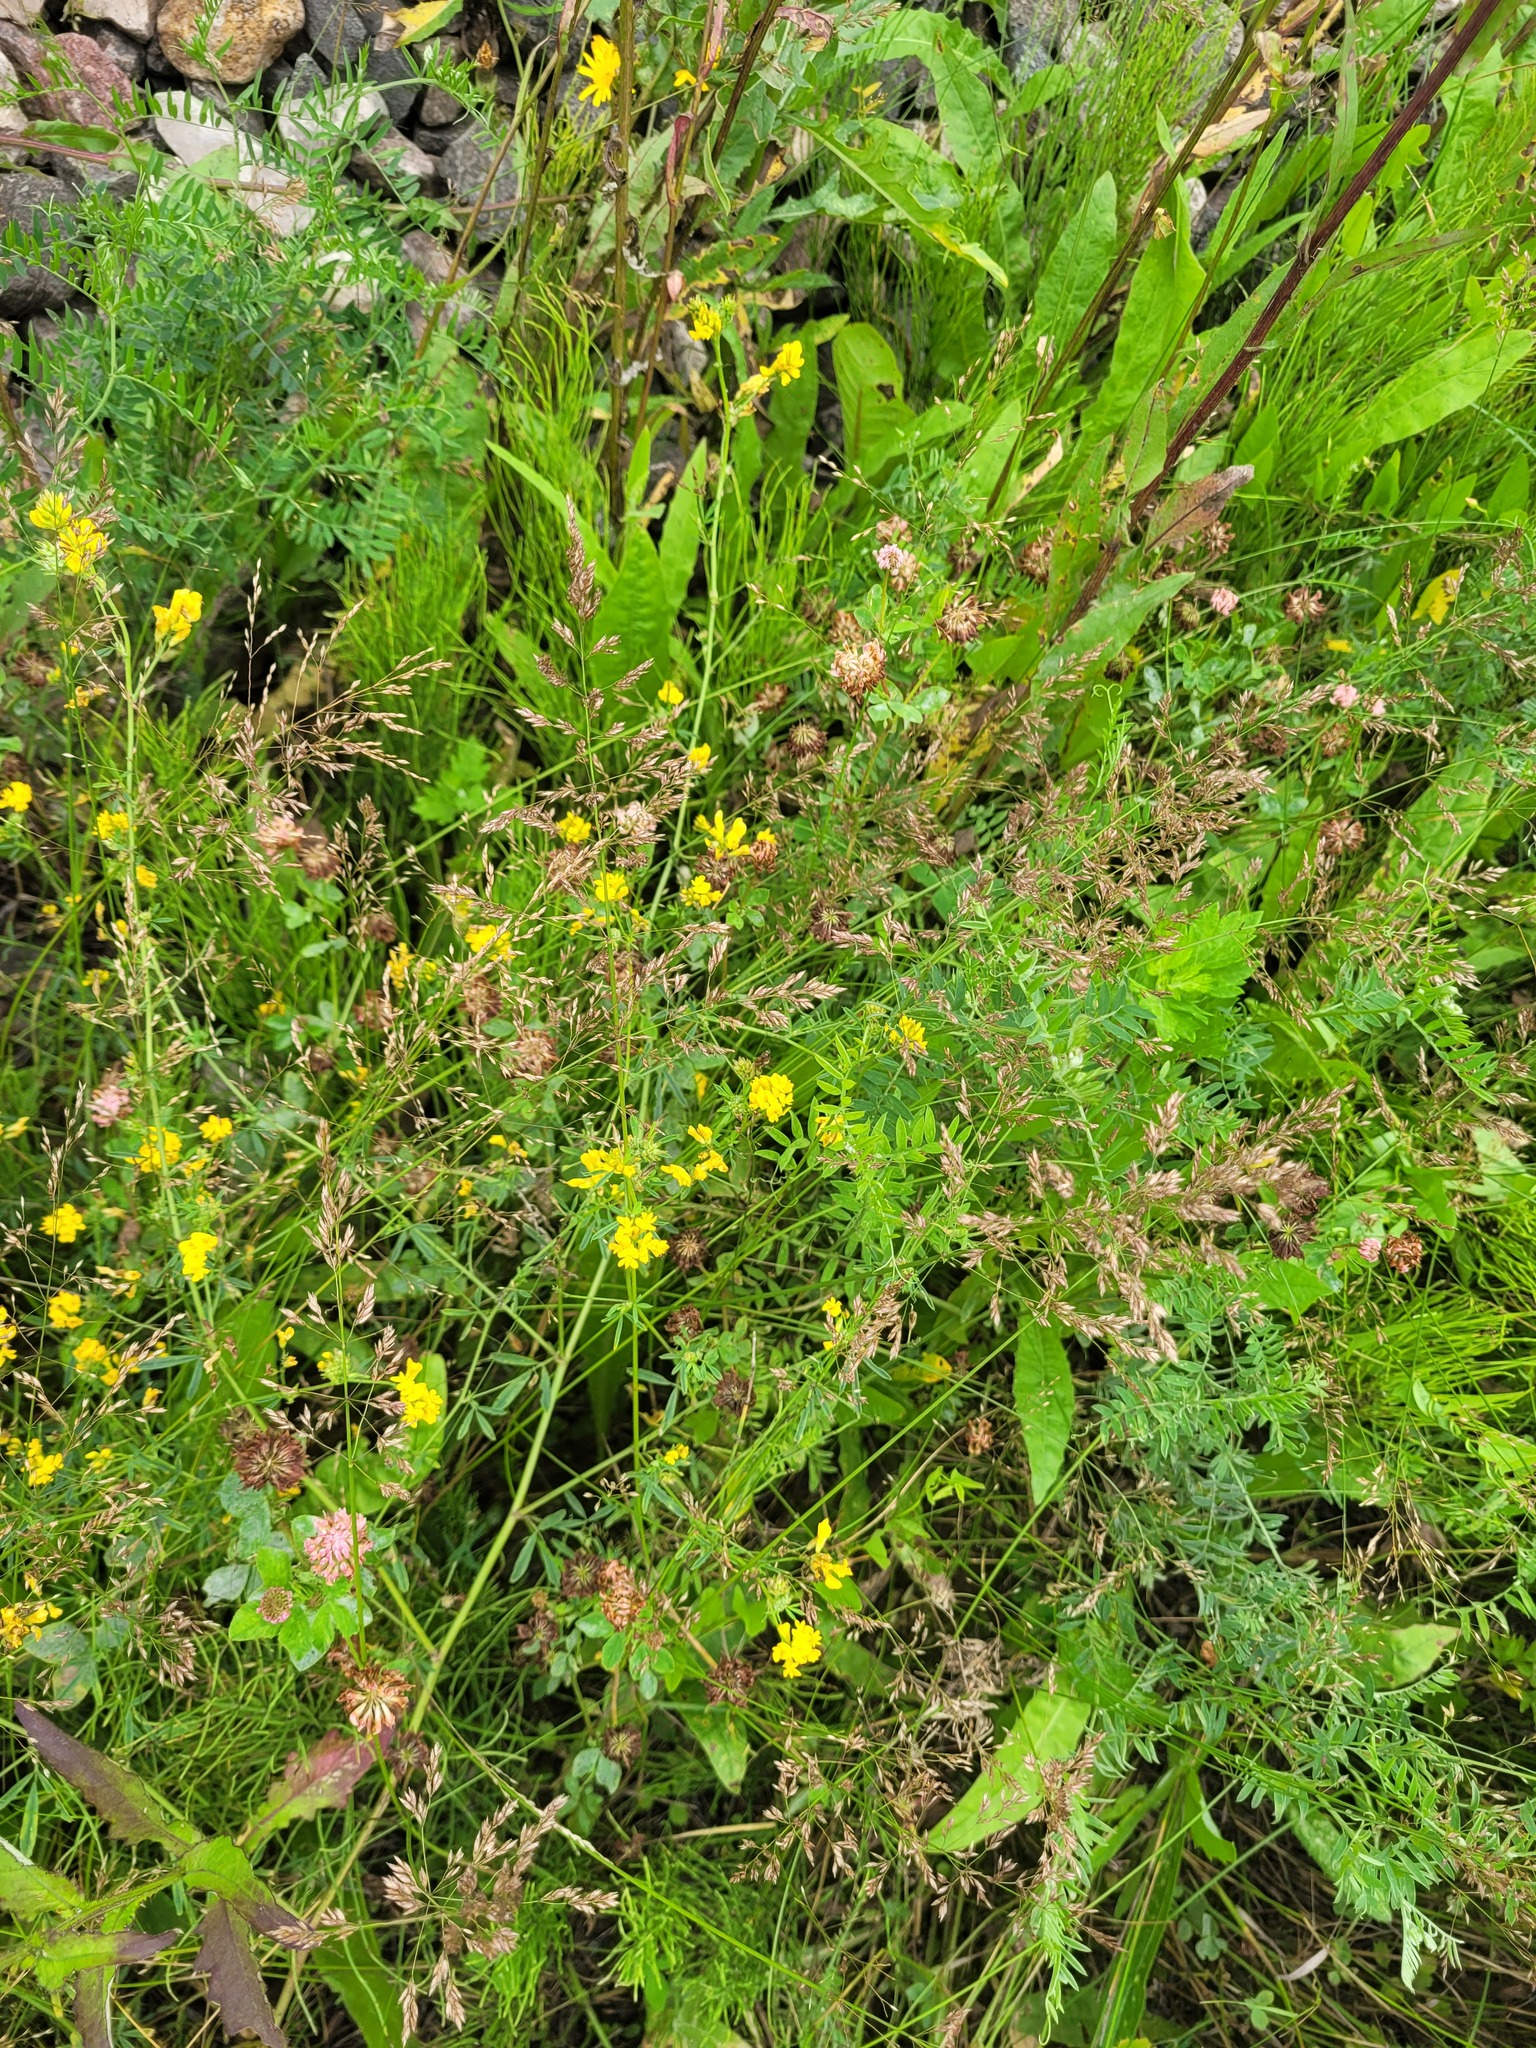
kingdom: Plantae
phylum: Tracheophyta
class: Magnoliopsida
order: Fabales
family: Fabaceae
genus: Medicago
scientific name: Medicago falcata
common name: Sickle medick
